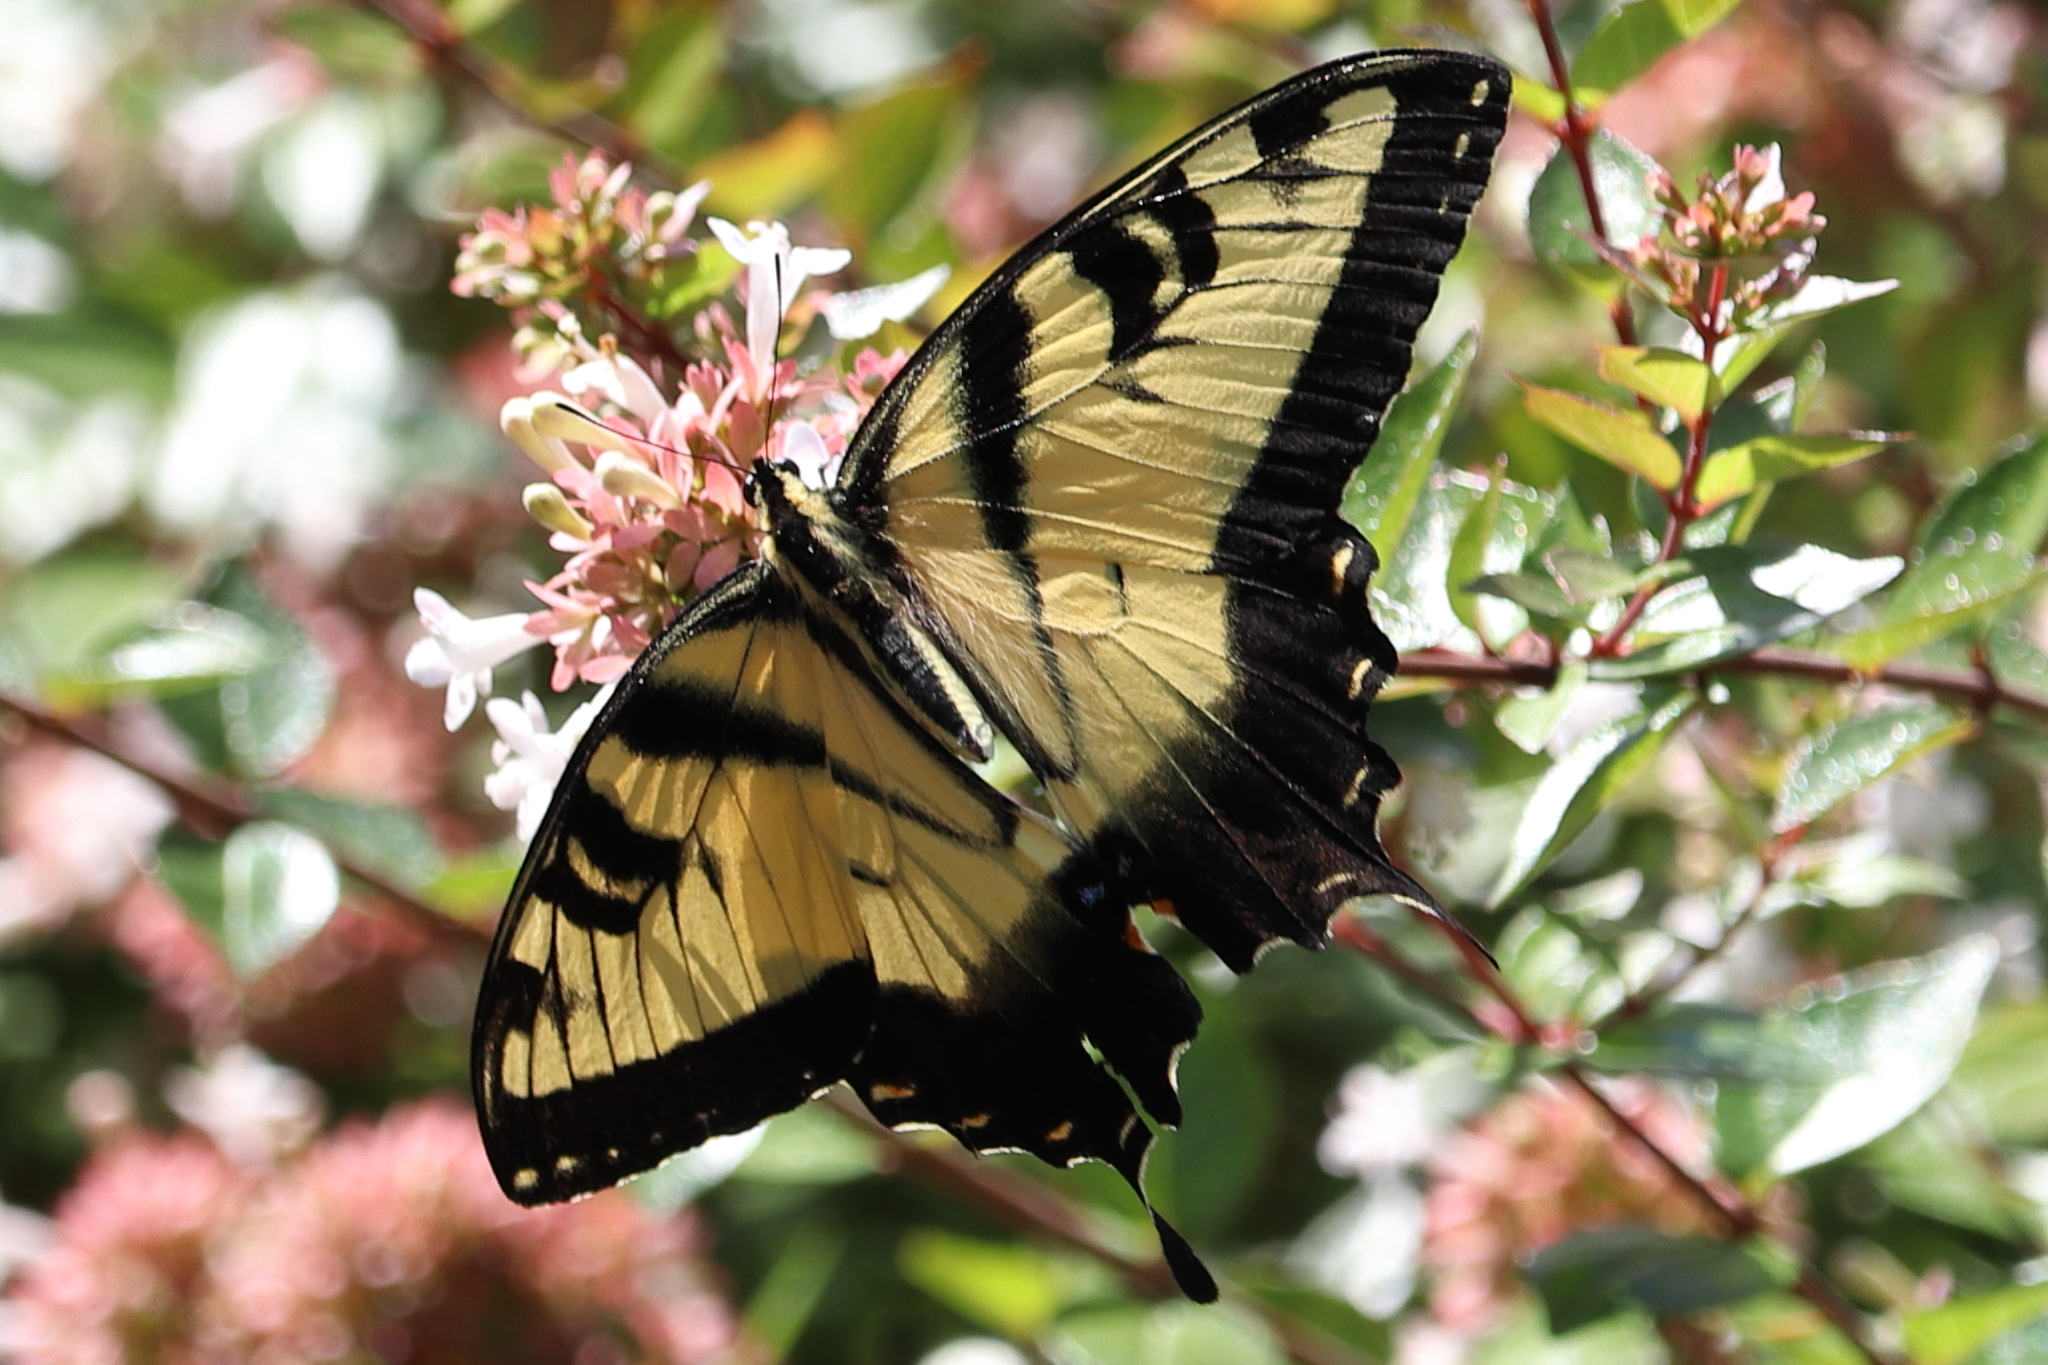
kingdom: Animalia
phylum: Arthropoda
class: Insecta
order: Lepidoptera
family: Papilionidae
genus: Papilio
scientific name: Papilio glaucus
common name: Tiger swallowtail
